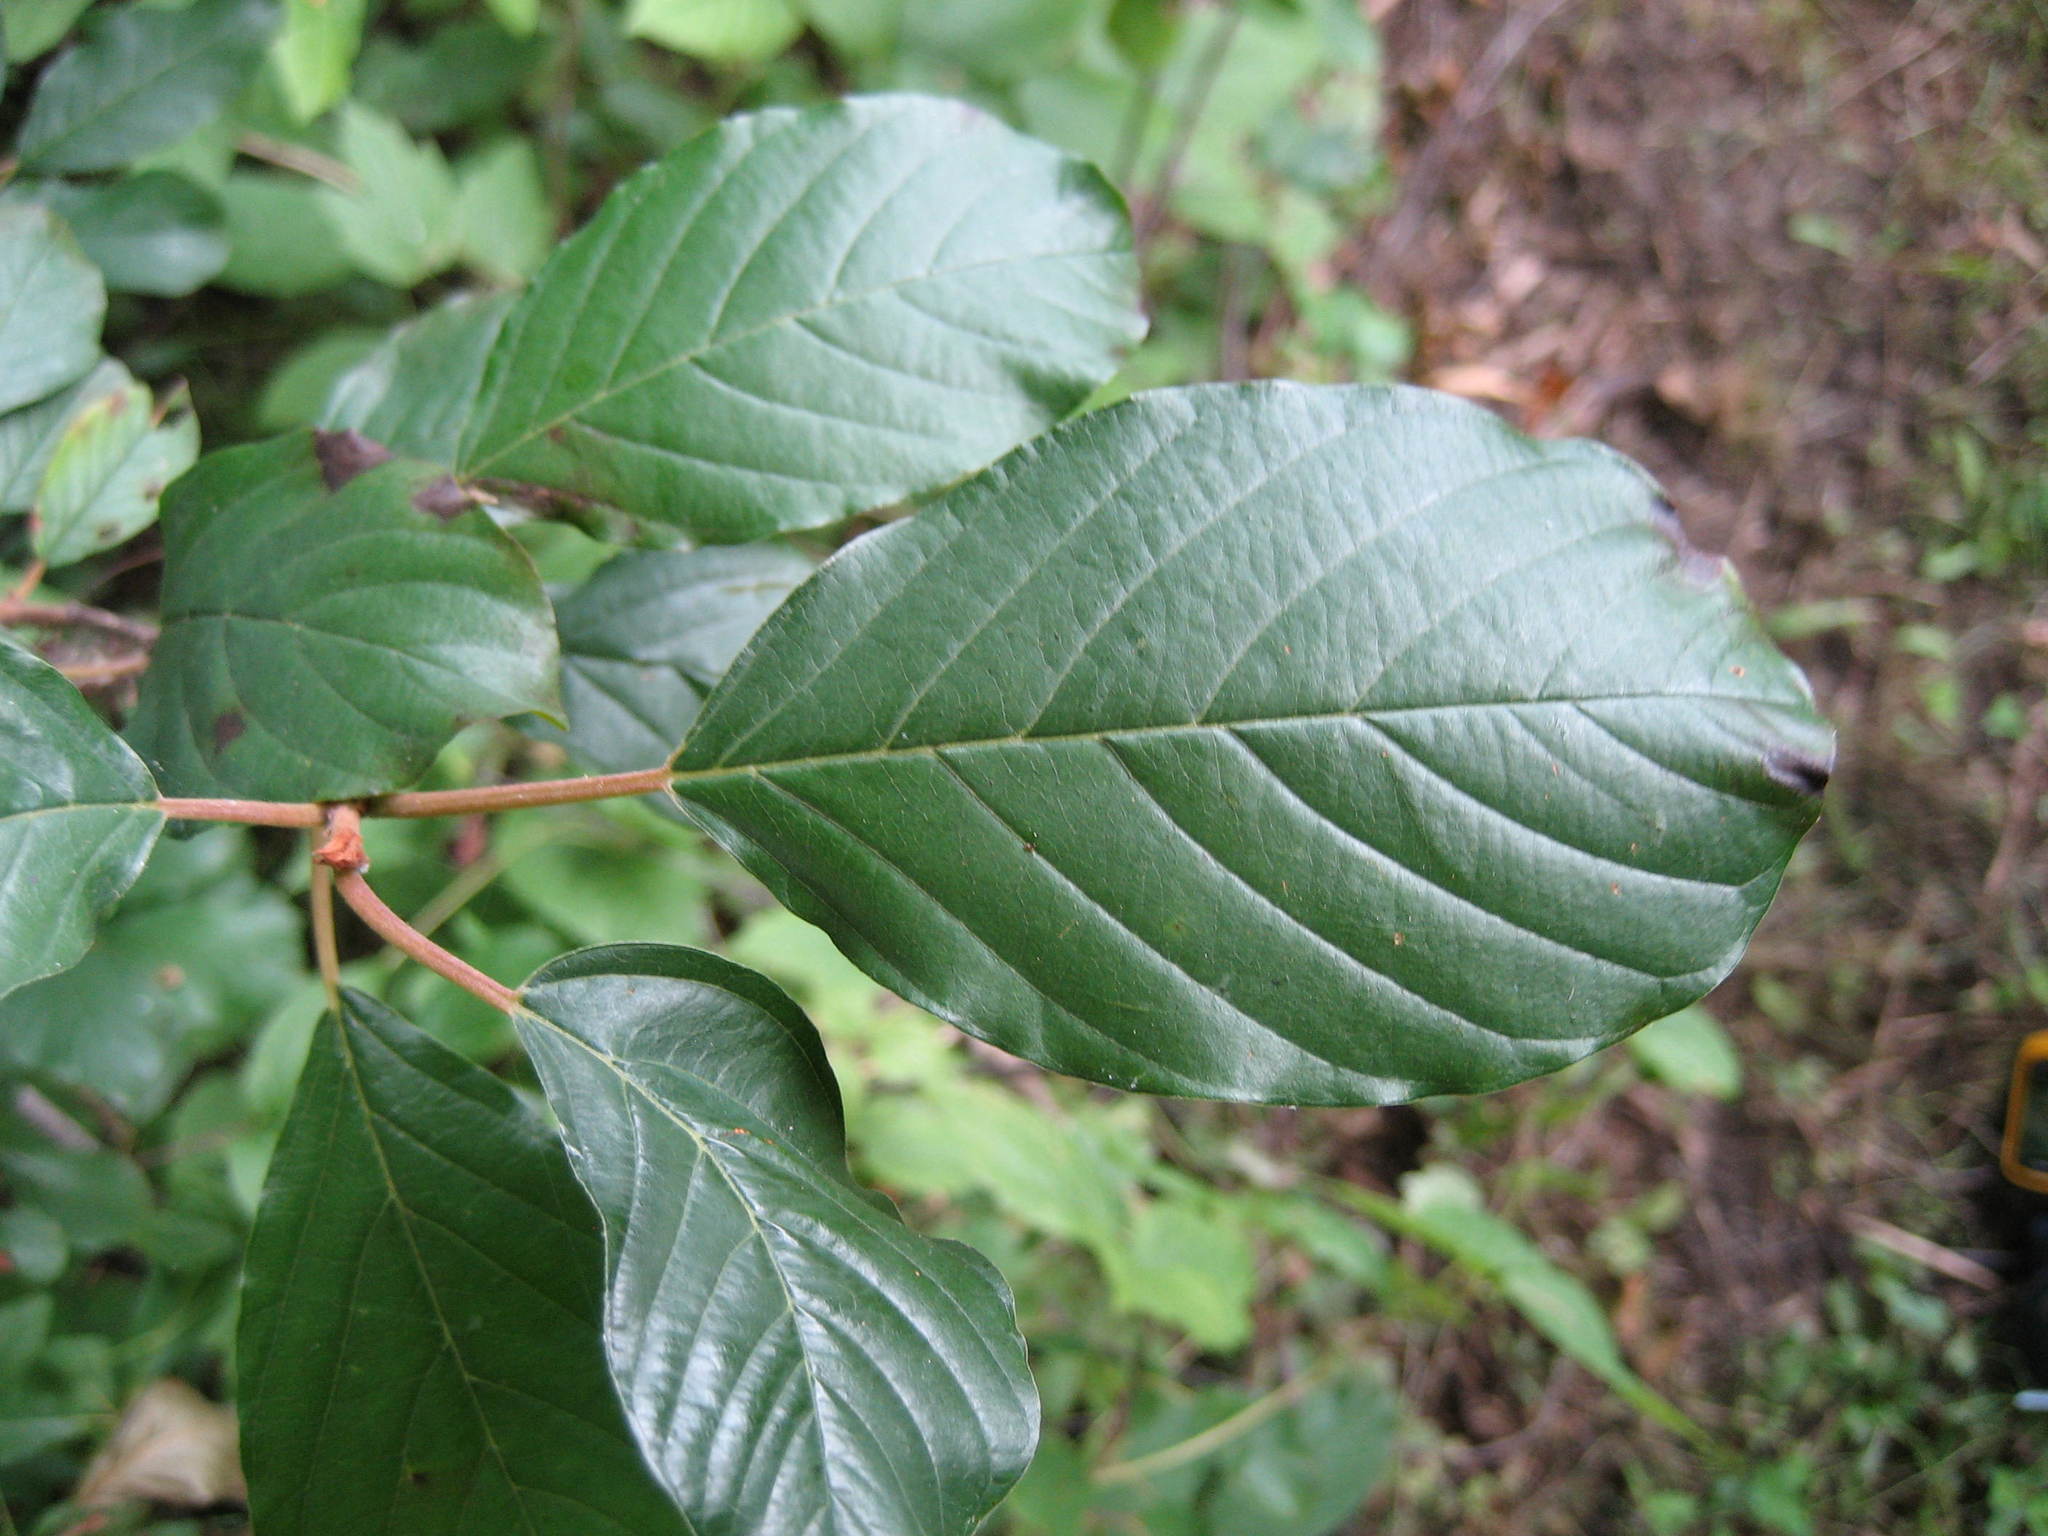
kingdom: Plantae
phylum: Tracheophyta
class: Magnoliopsida
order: Rosales
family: Rhamnaceae
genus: Frangula
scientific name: Frangula alnus
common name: Alder buckthorn
